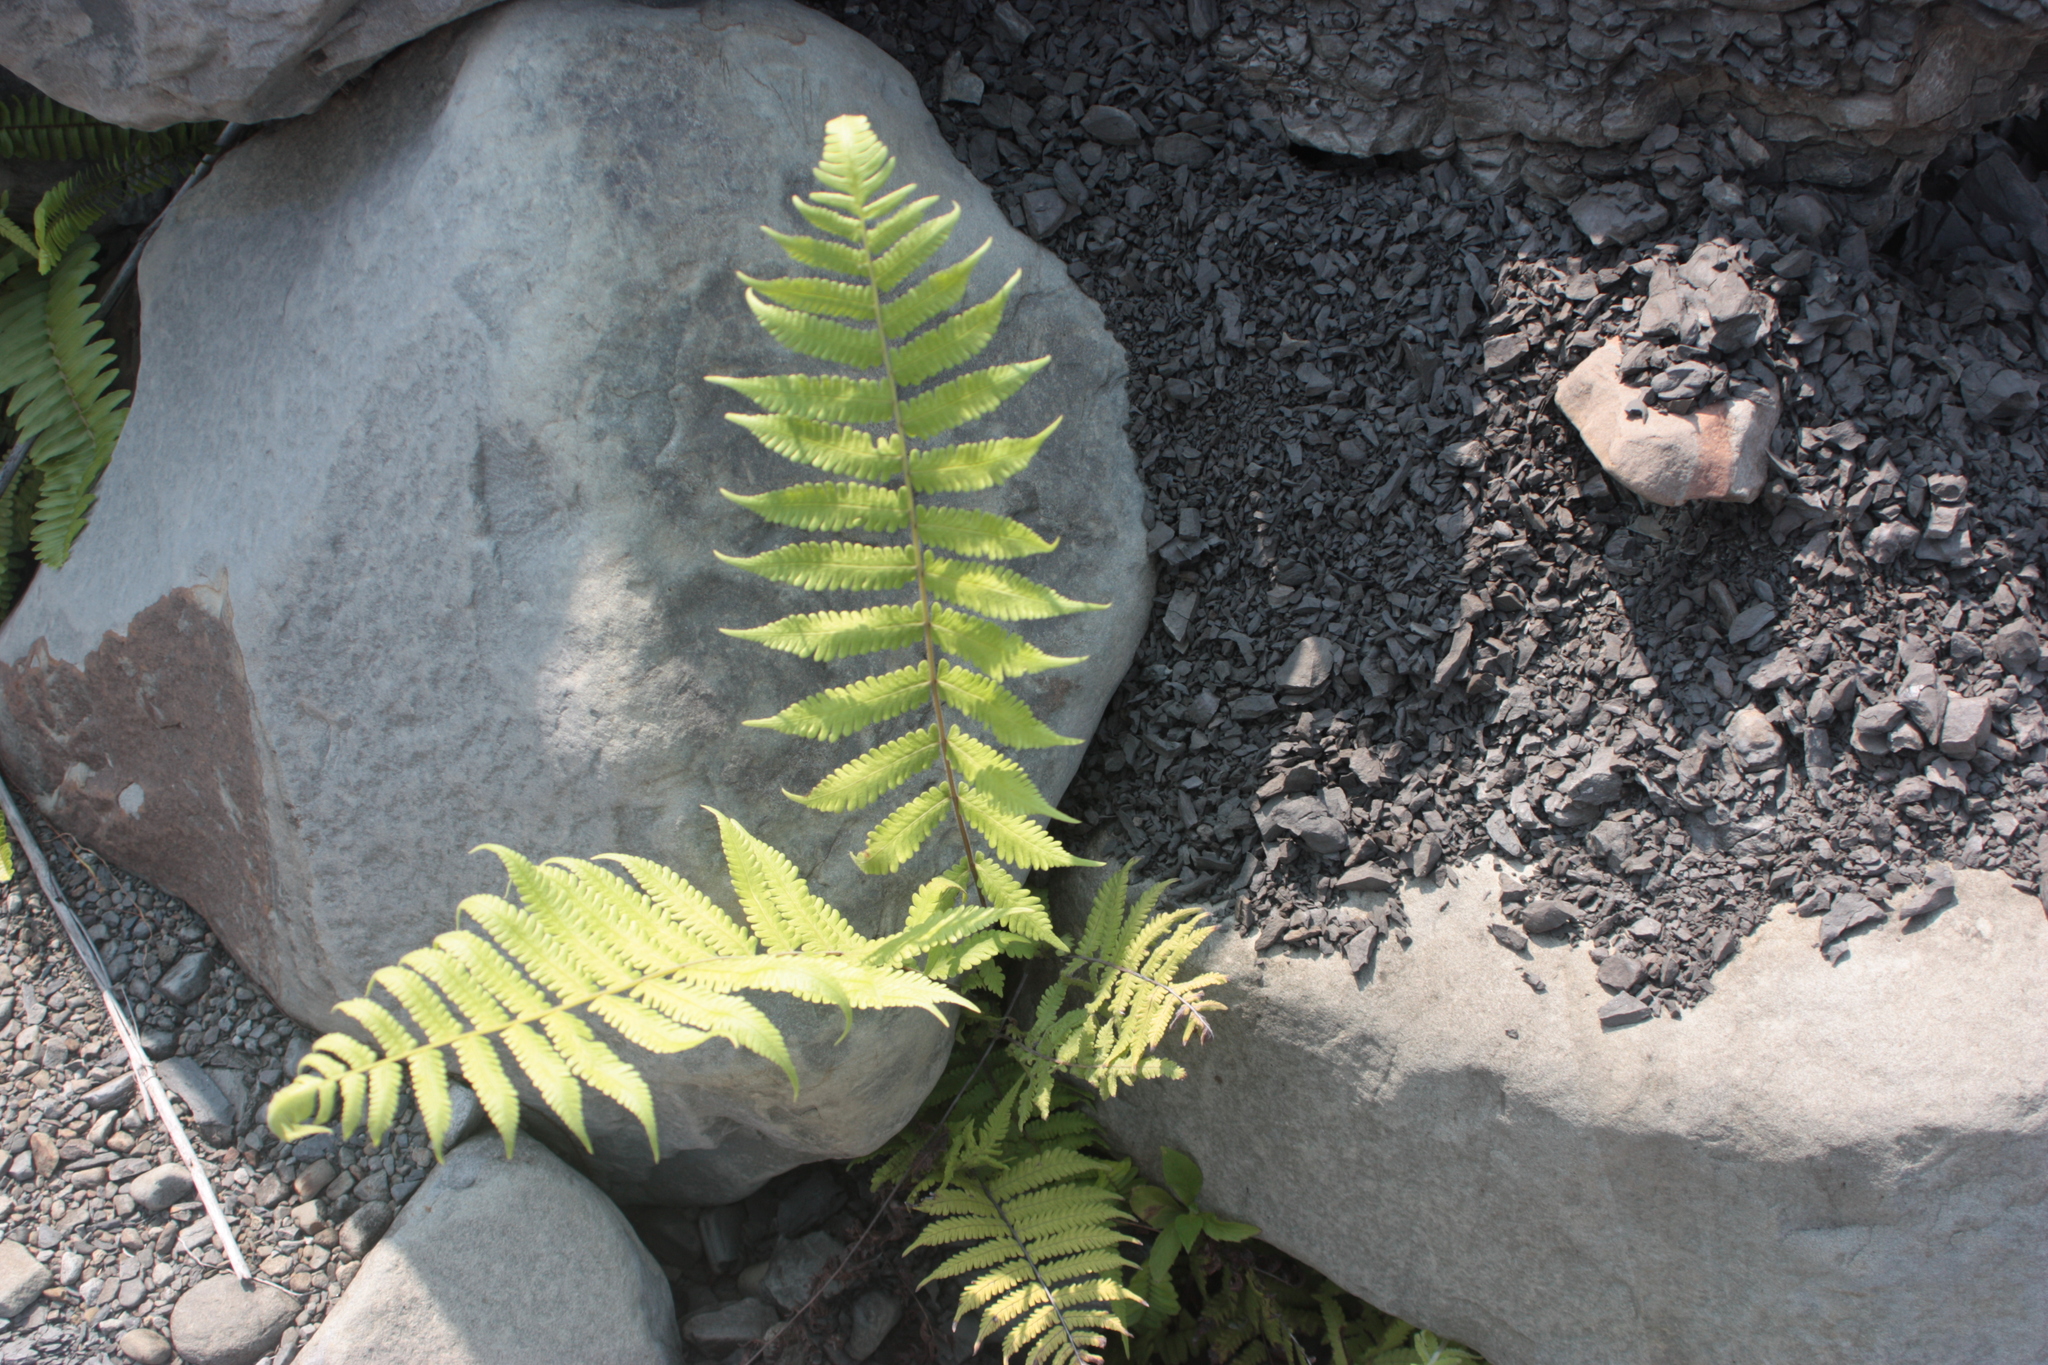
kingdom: Plantae
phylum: Tracheophyta
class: Polypodiopsida
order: Polypodiales
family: Thelypteridaceae
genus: Christella
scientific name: Christella parasitica
